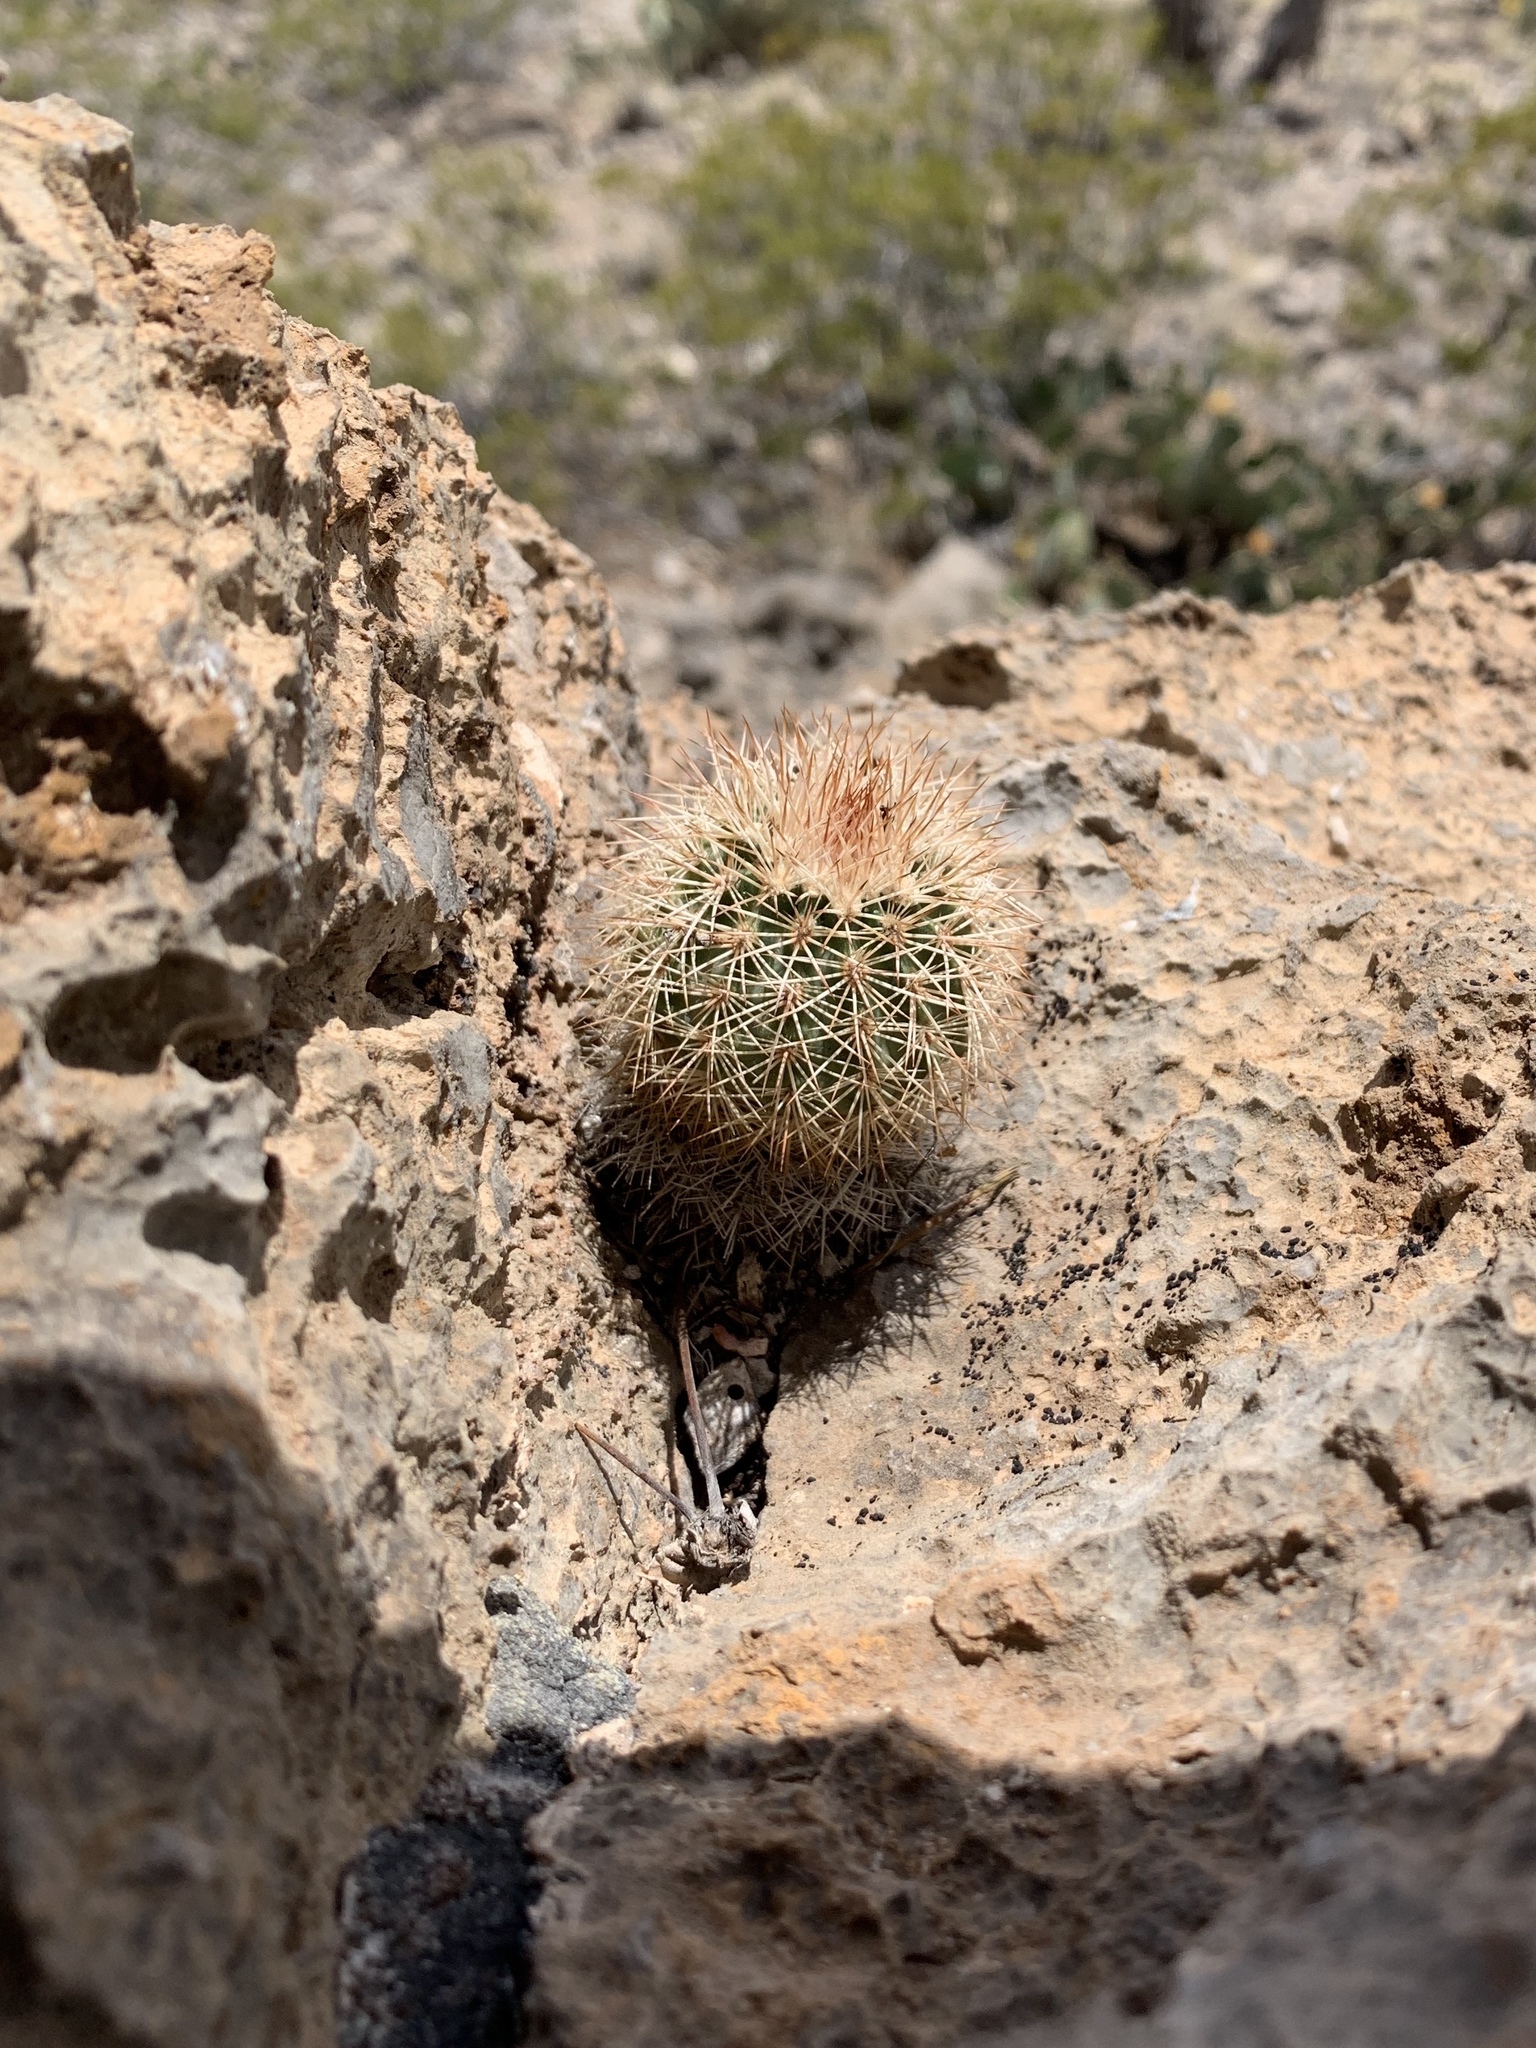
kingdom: Plantae
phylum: Tracheophyta
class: Magnoliopsida
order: Caryophyllales
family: Cactaceae
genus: Echinocereus
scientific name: Echinocereus dasyacanthus
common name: Spiny hedgehog cactus
